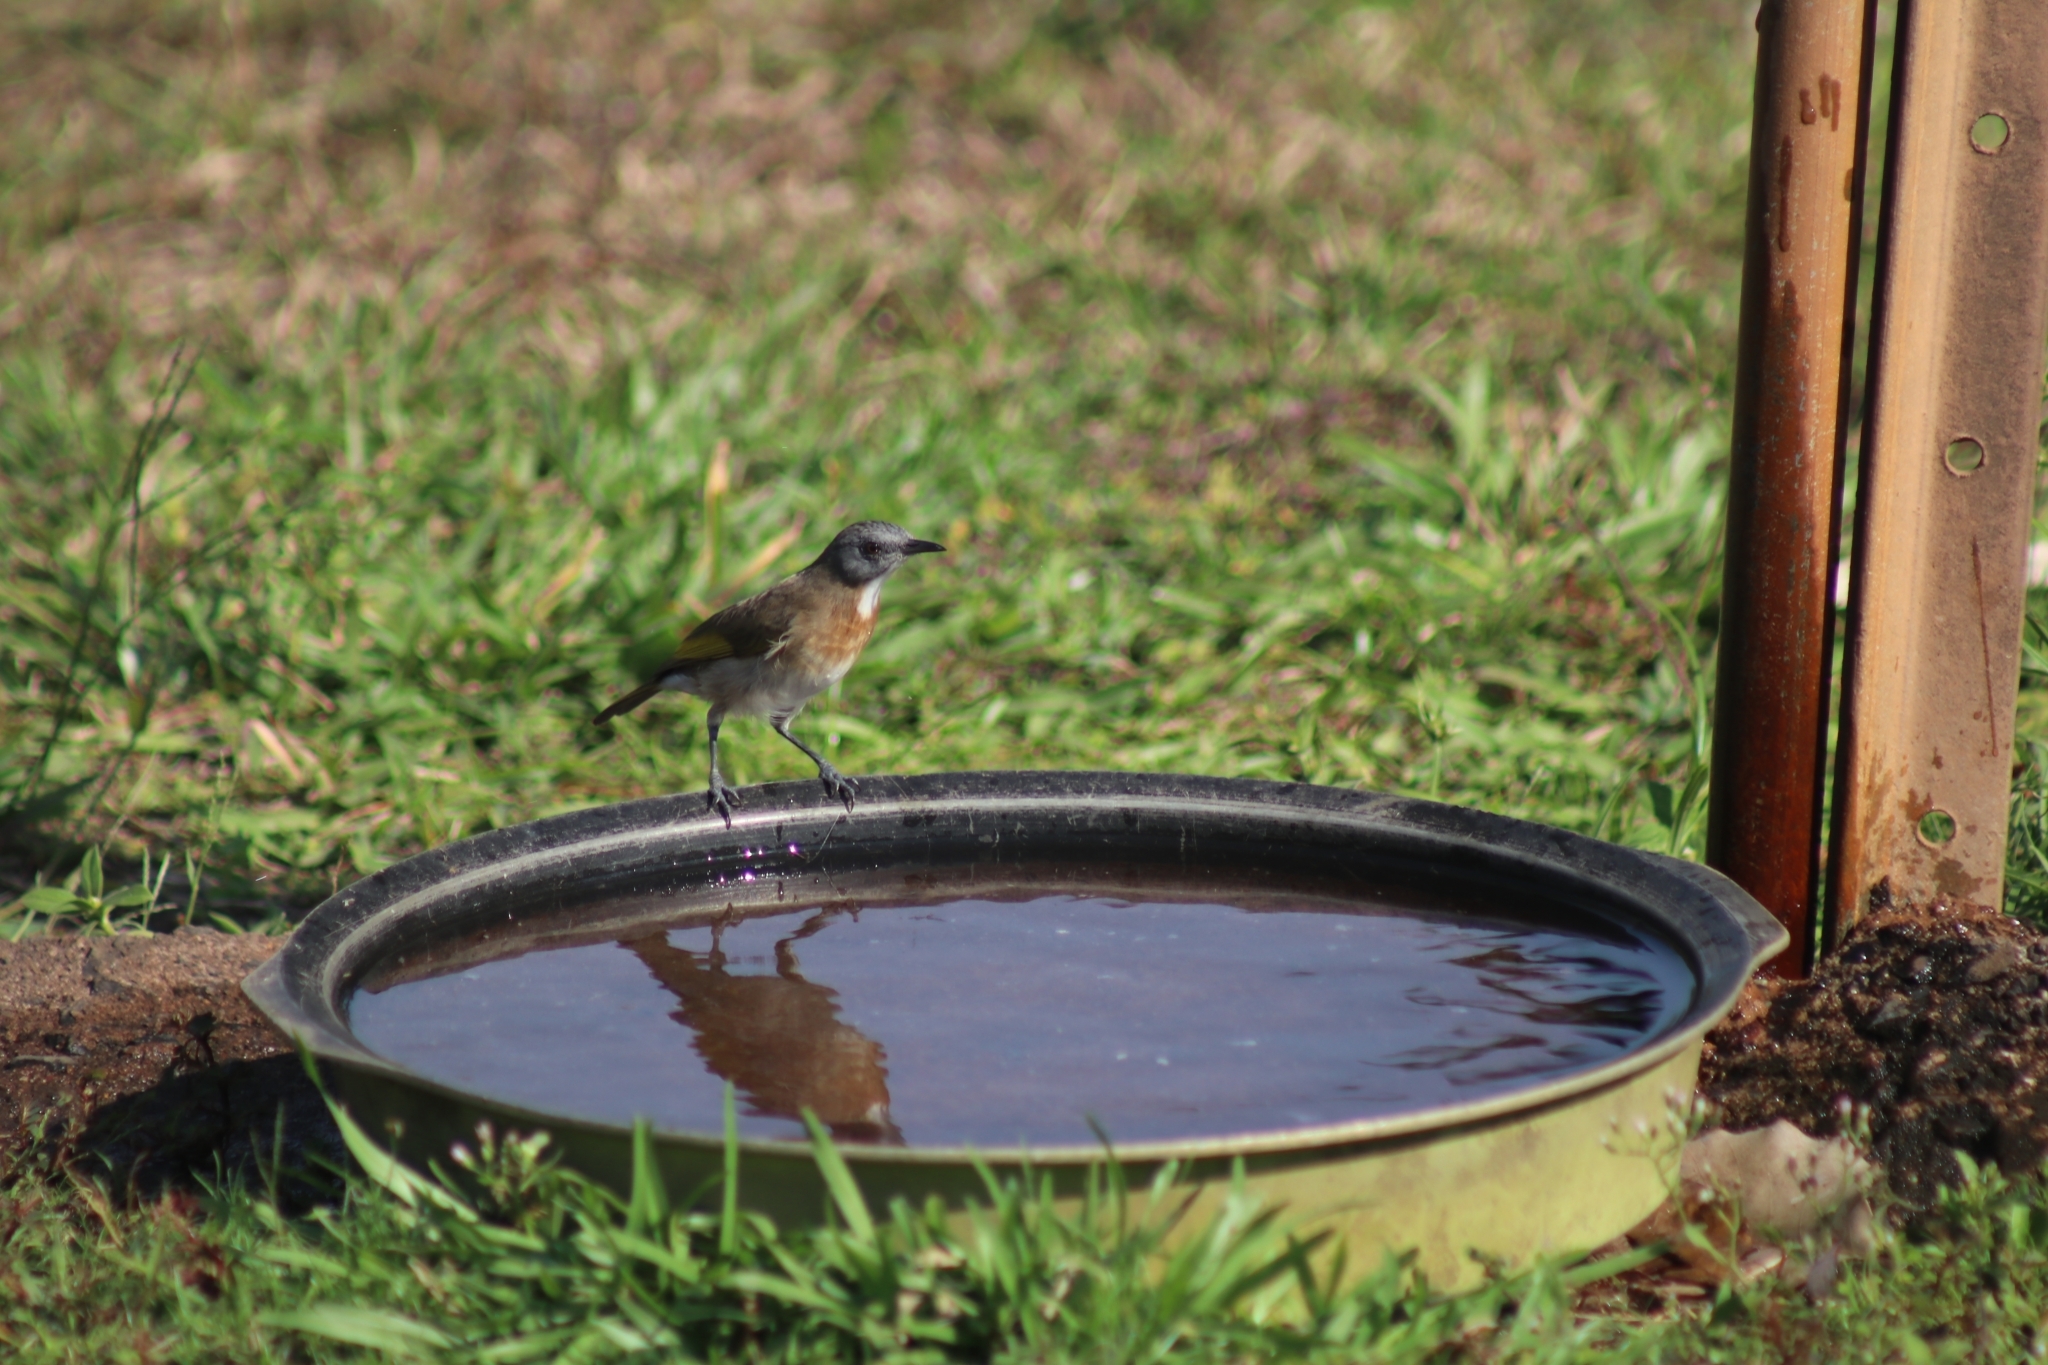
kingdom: Animalia
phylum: Chordata
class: Aves
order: Passeriformes
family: Meliphagidae
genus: Conopophila
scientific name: Conopophila albogularis
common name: Rufous-banded honeyeater
